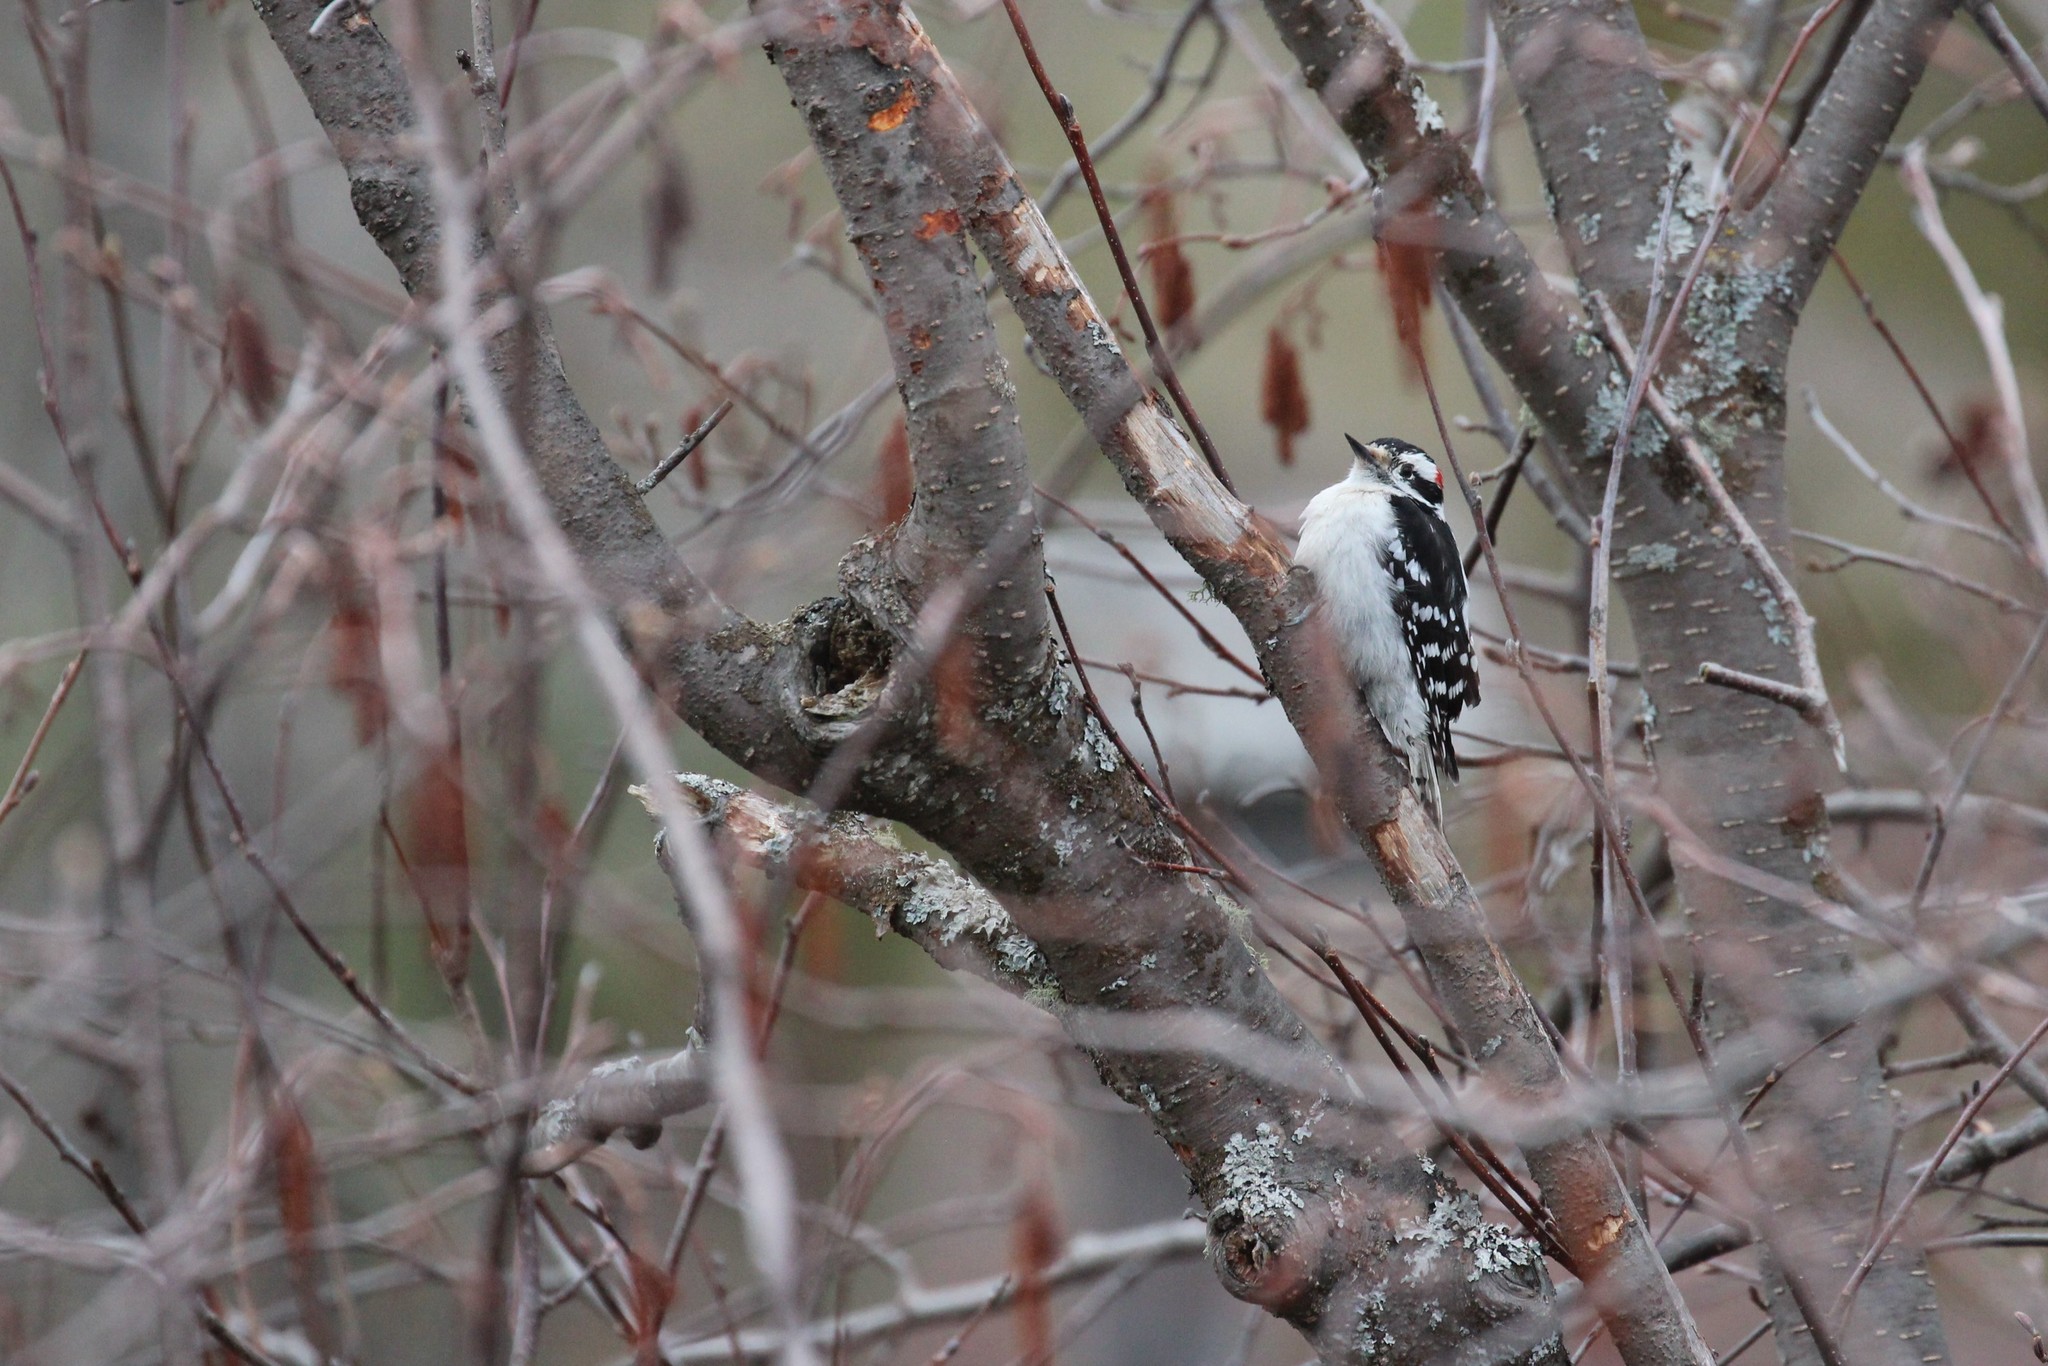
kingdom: Animalia
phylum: Chordata
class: Aves
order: Piciformes
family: Picidae
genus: Dryobates
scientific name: Dryobates pubescens
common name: Downy woodpecker
